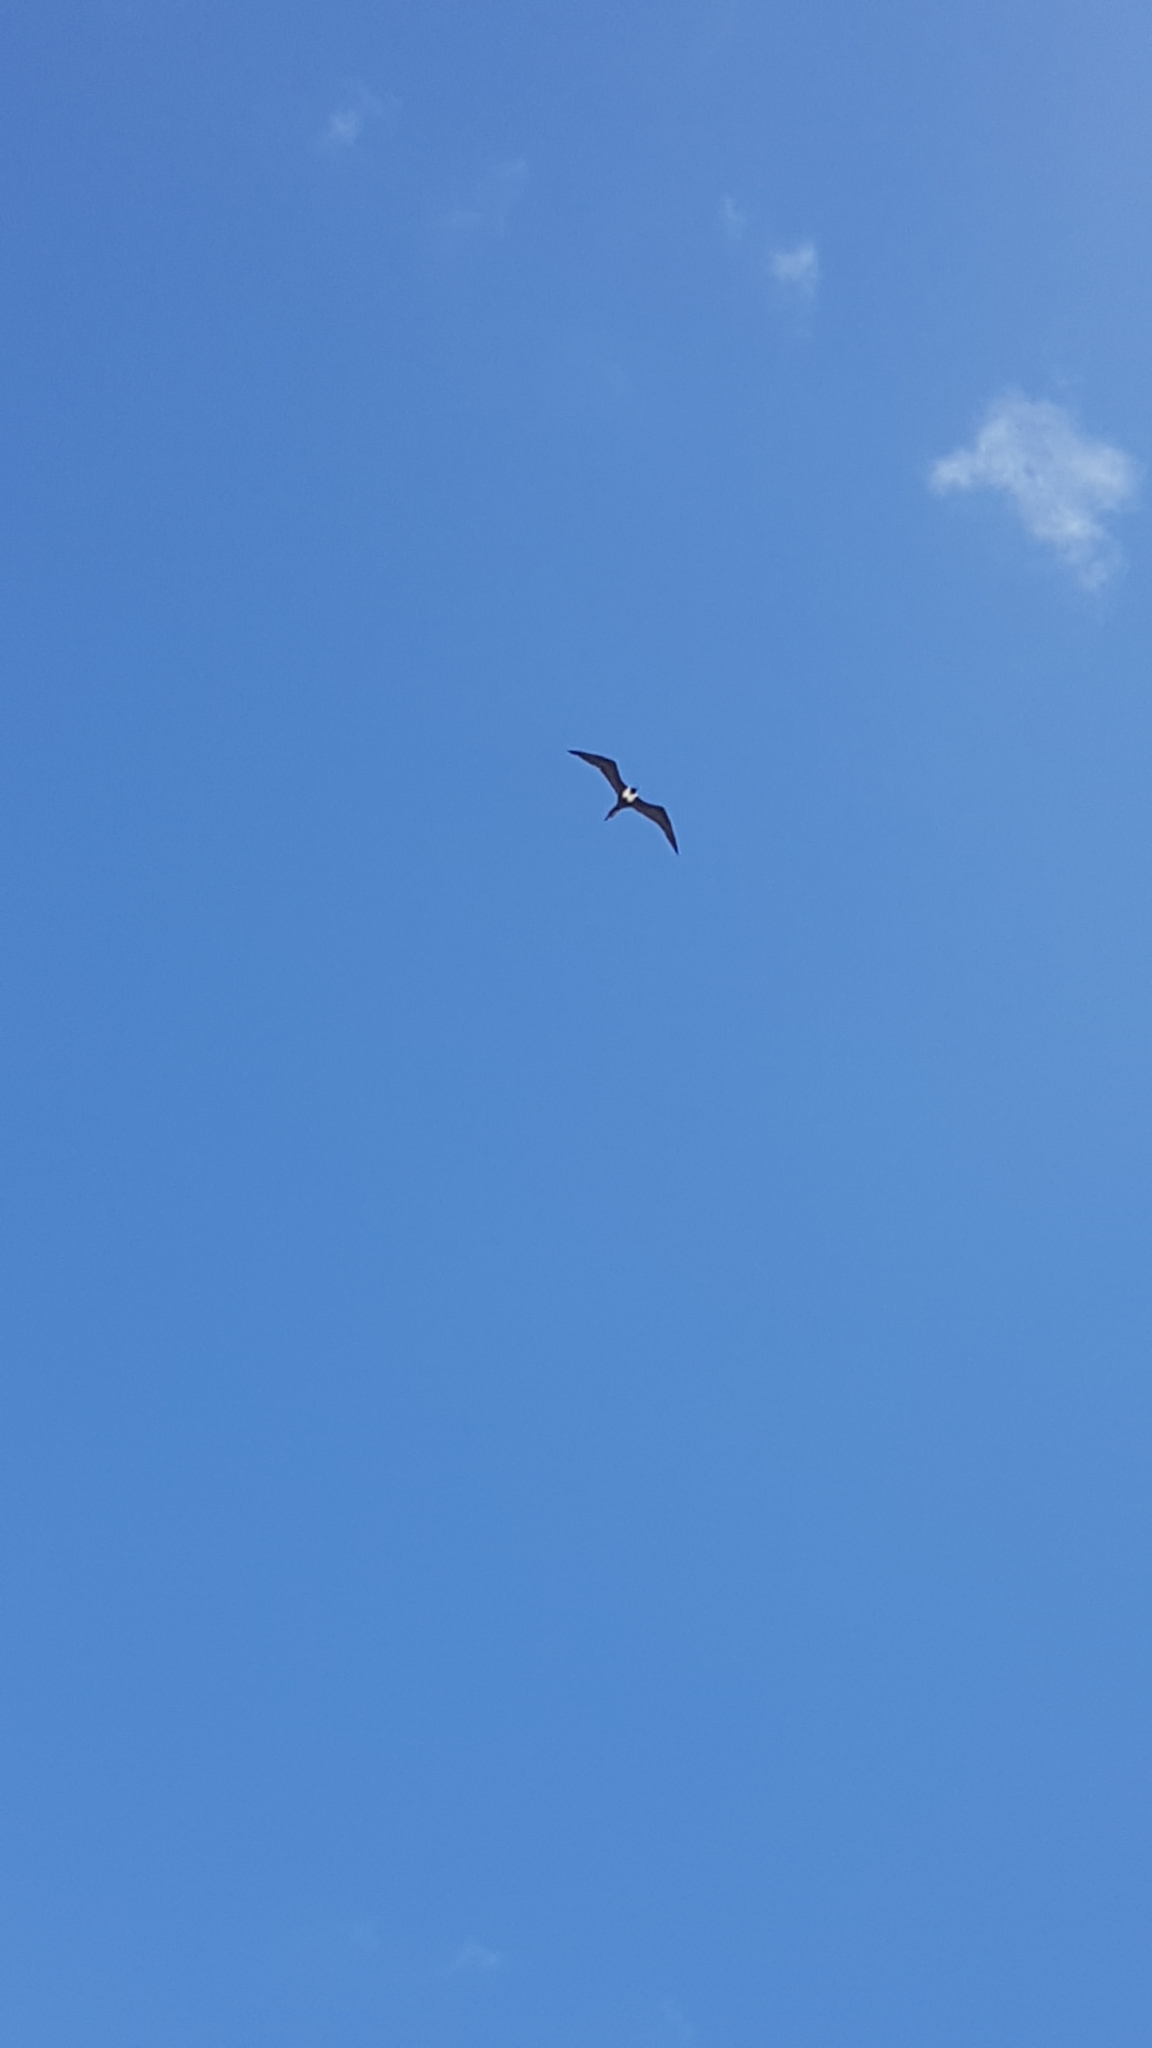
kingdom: Animalia
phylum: Chordata
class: Aves
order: Suliformes
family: Fregatidae
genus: Fregata
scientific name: Fregata magnificens
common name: Magnificent frigatebird
